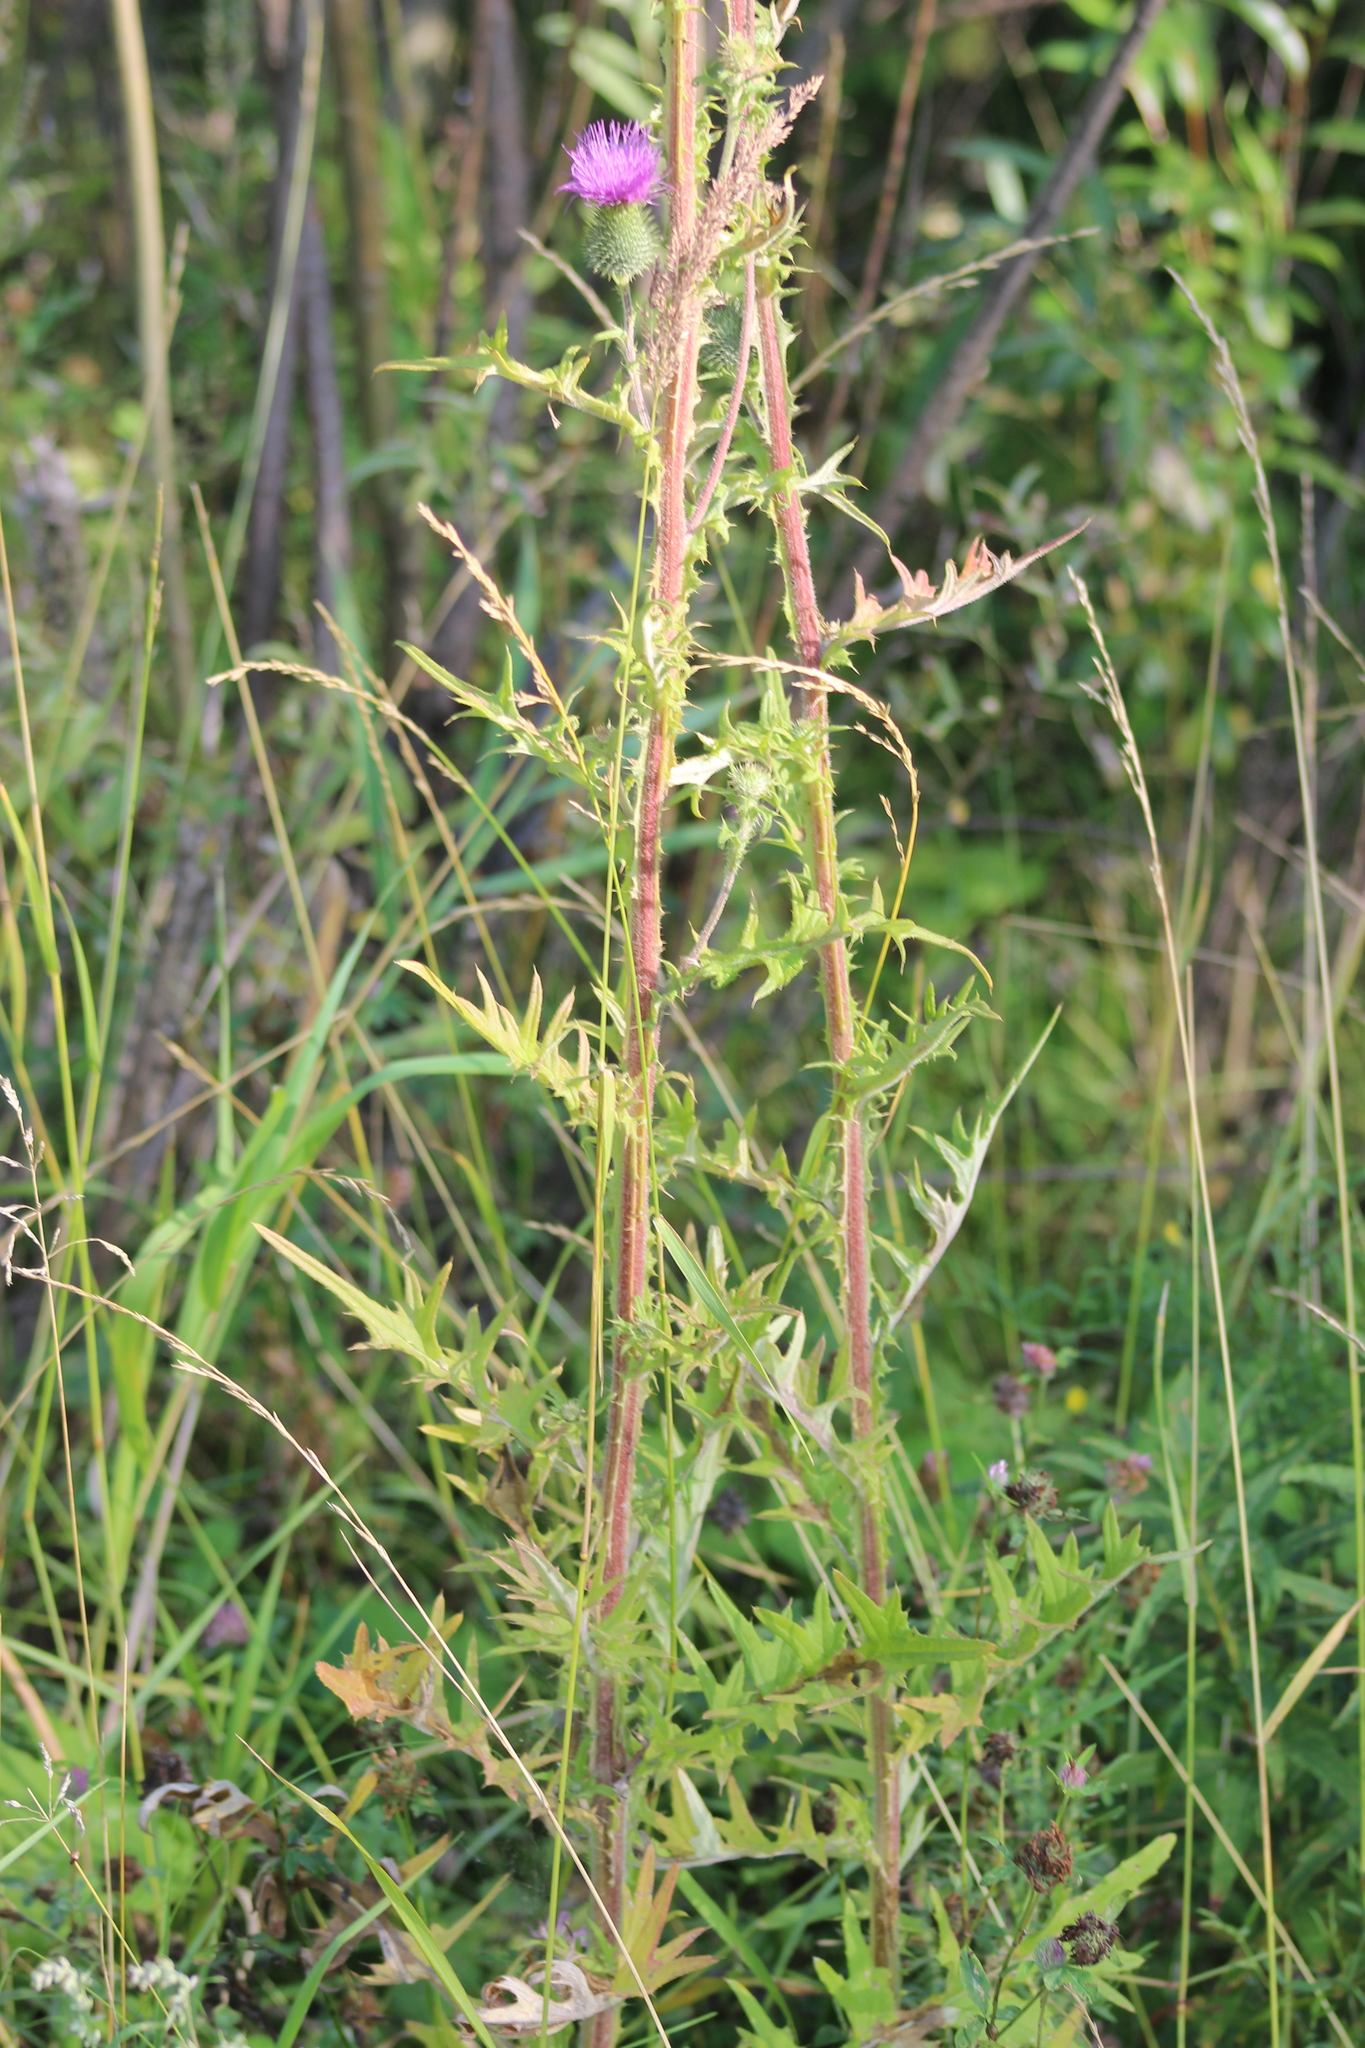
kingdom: Plantae
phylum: Tracheophyta
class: Magnoliopsida
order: Asterales
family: Asteraceae
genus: Cirsium
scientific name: Cirsium vulgare
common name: Bull thistle
